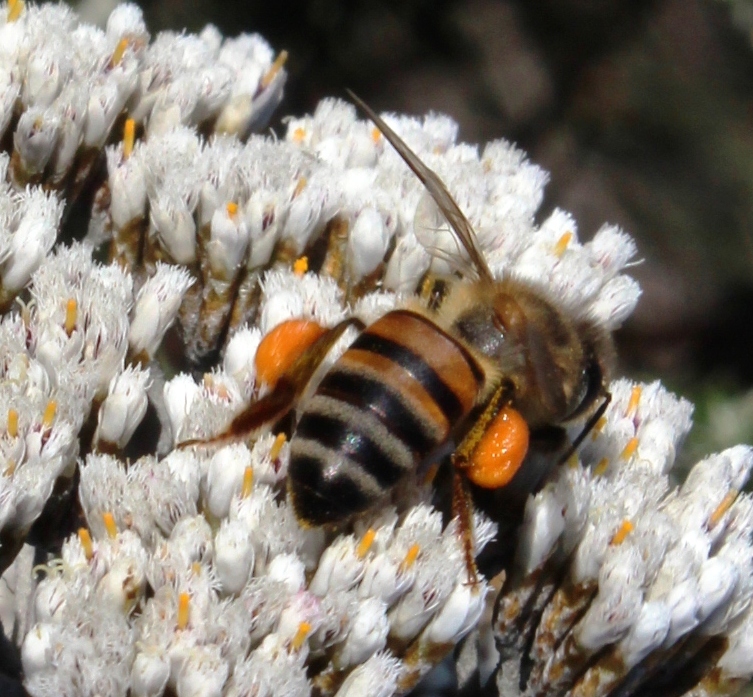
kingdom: Animalia
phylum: Arthropoda
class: Insecta
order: Hymenoptera
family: Apidae
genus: Apis
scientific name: Apis mellifera
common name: Honey bee
